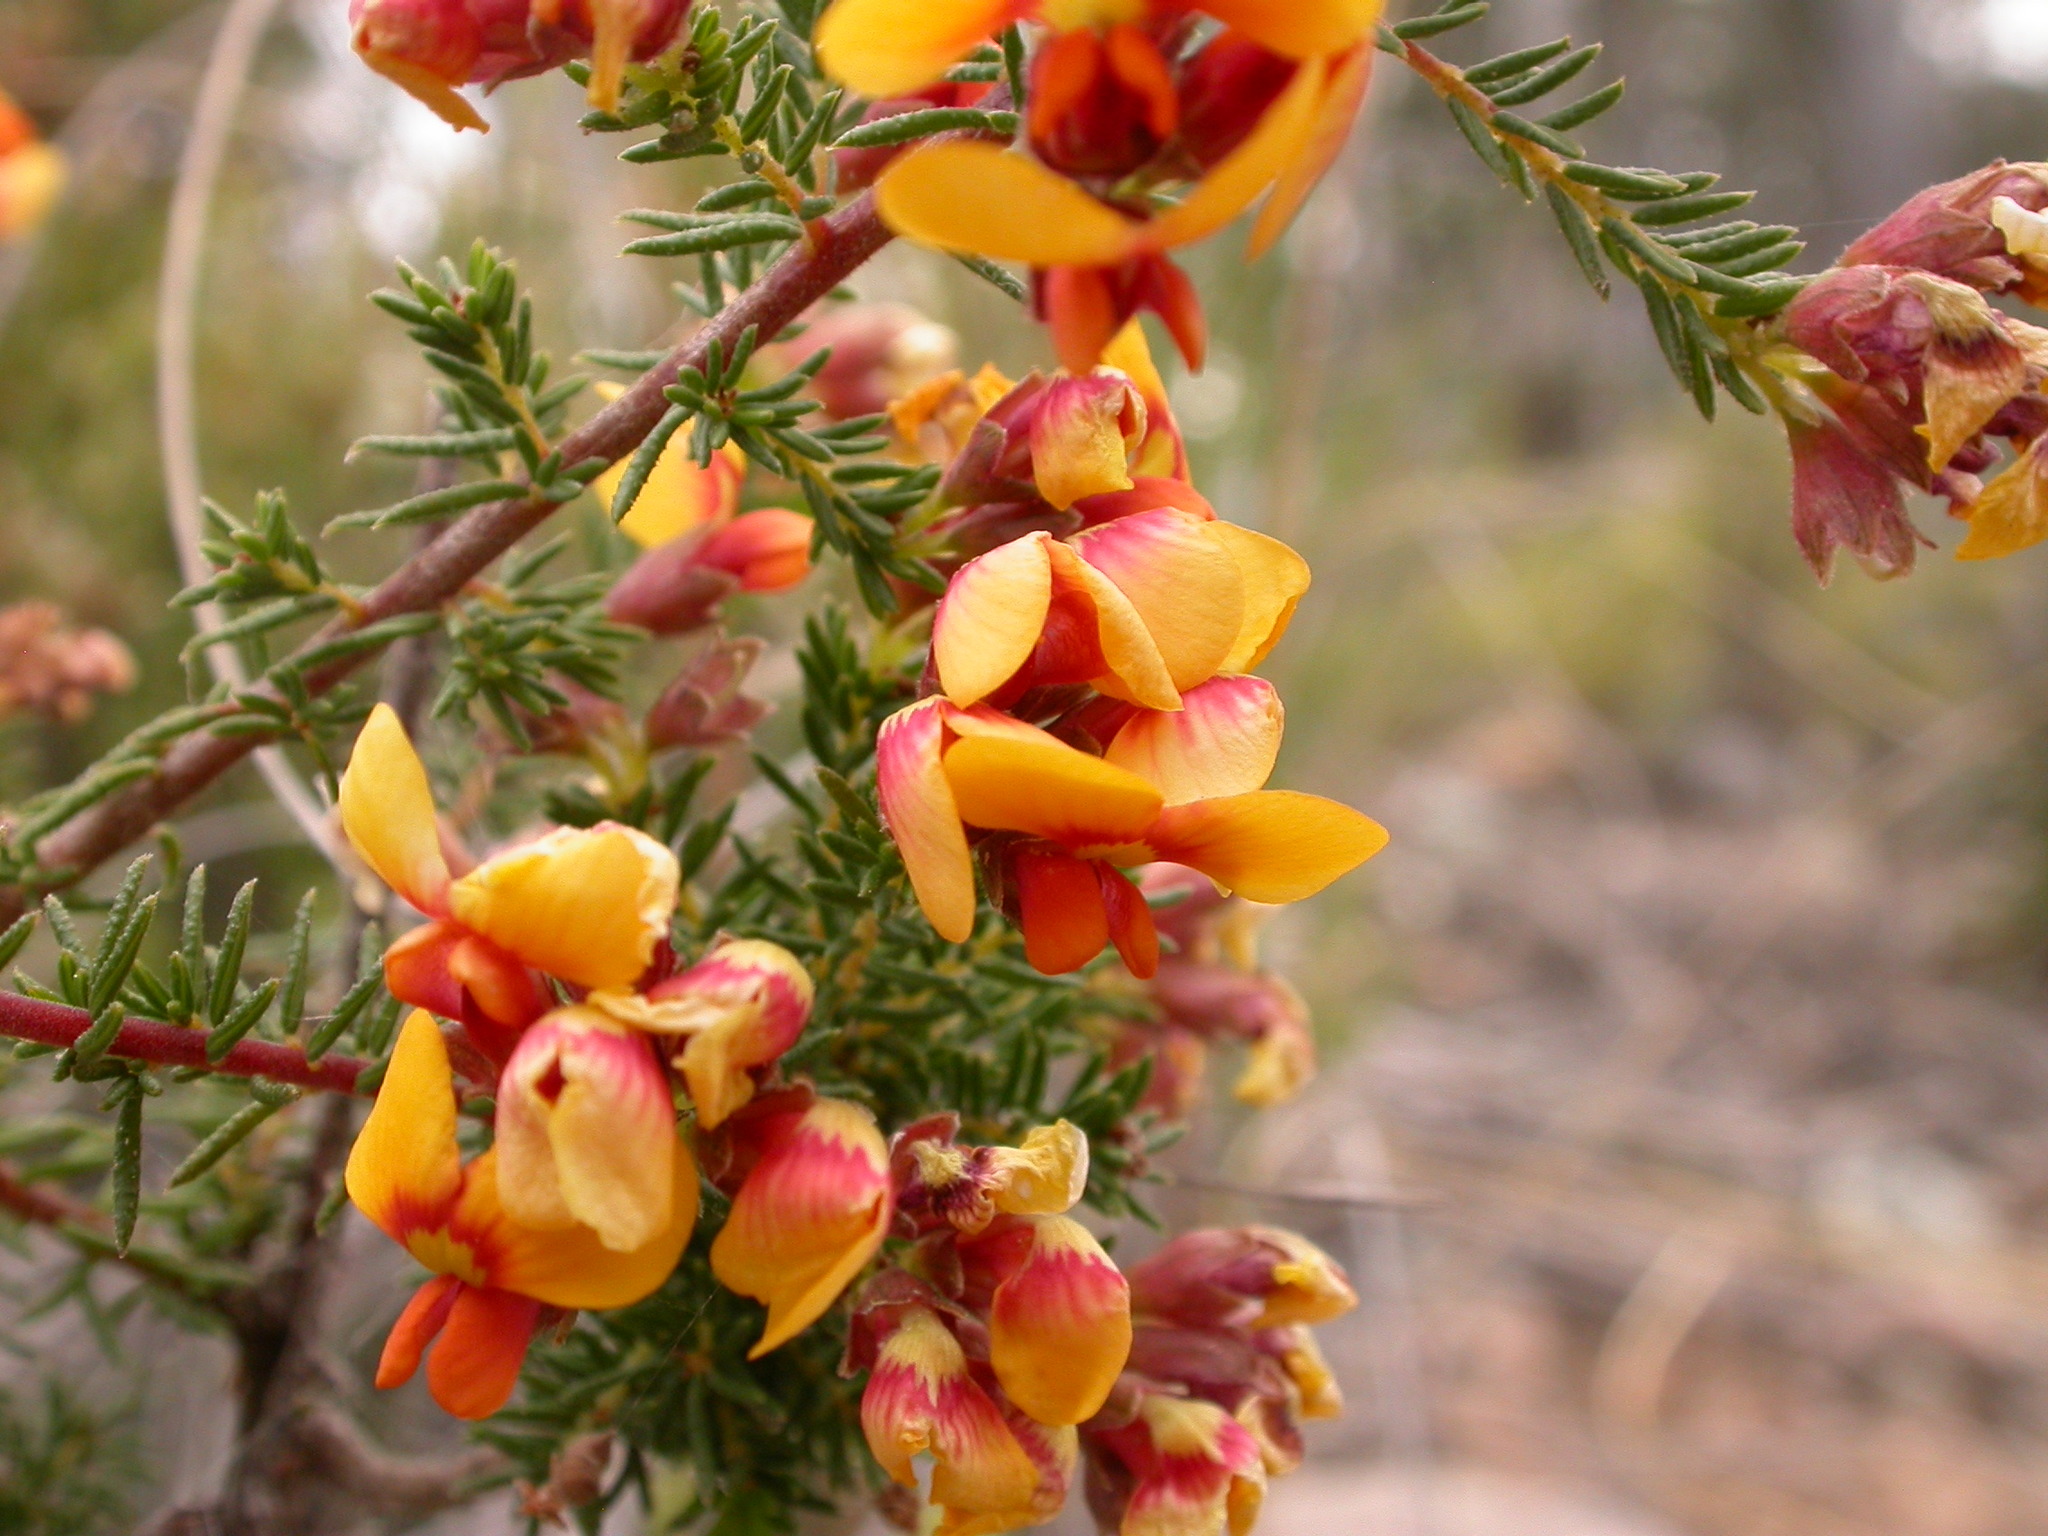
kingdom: Plantae
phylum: Tracheophyta
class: Magnoliopsida
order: Fabales
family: Fabaceae
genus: Dillwynia
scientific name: Dillwynia sericea
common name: Showy parrot-pea
